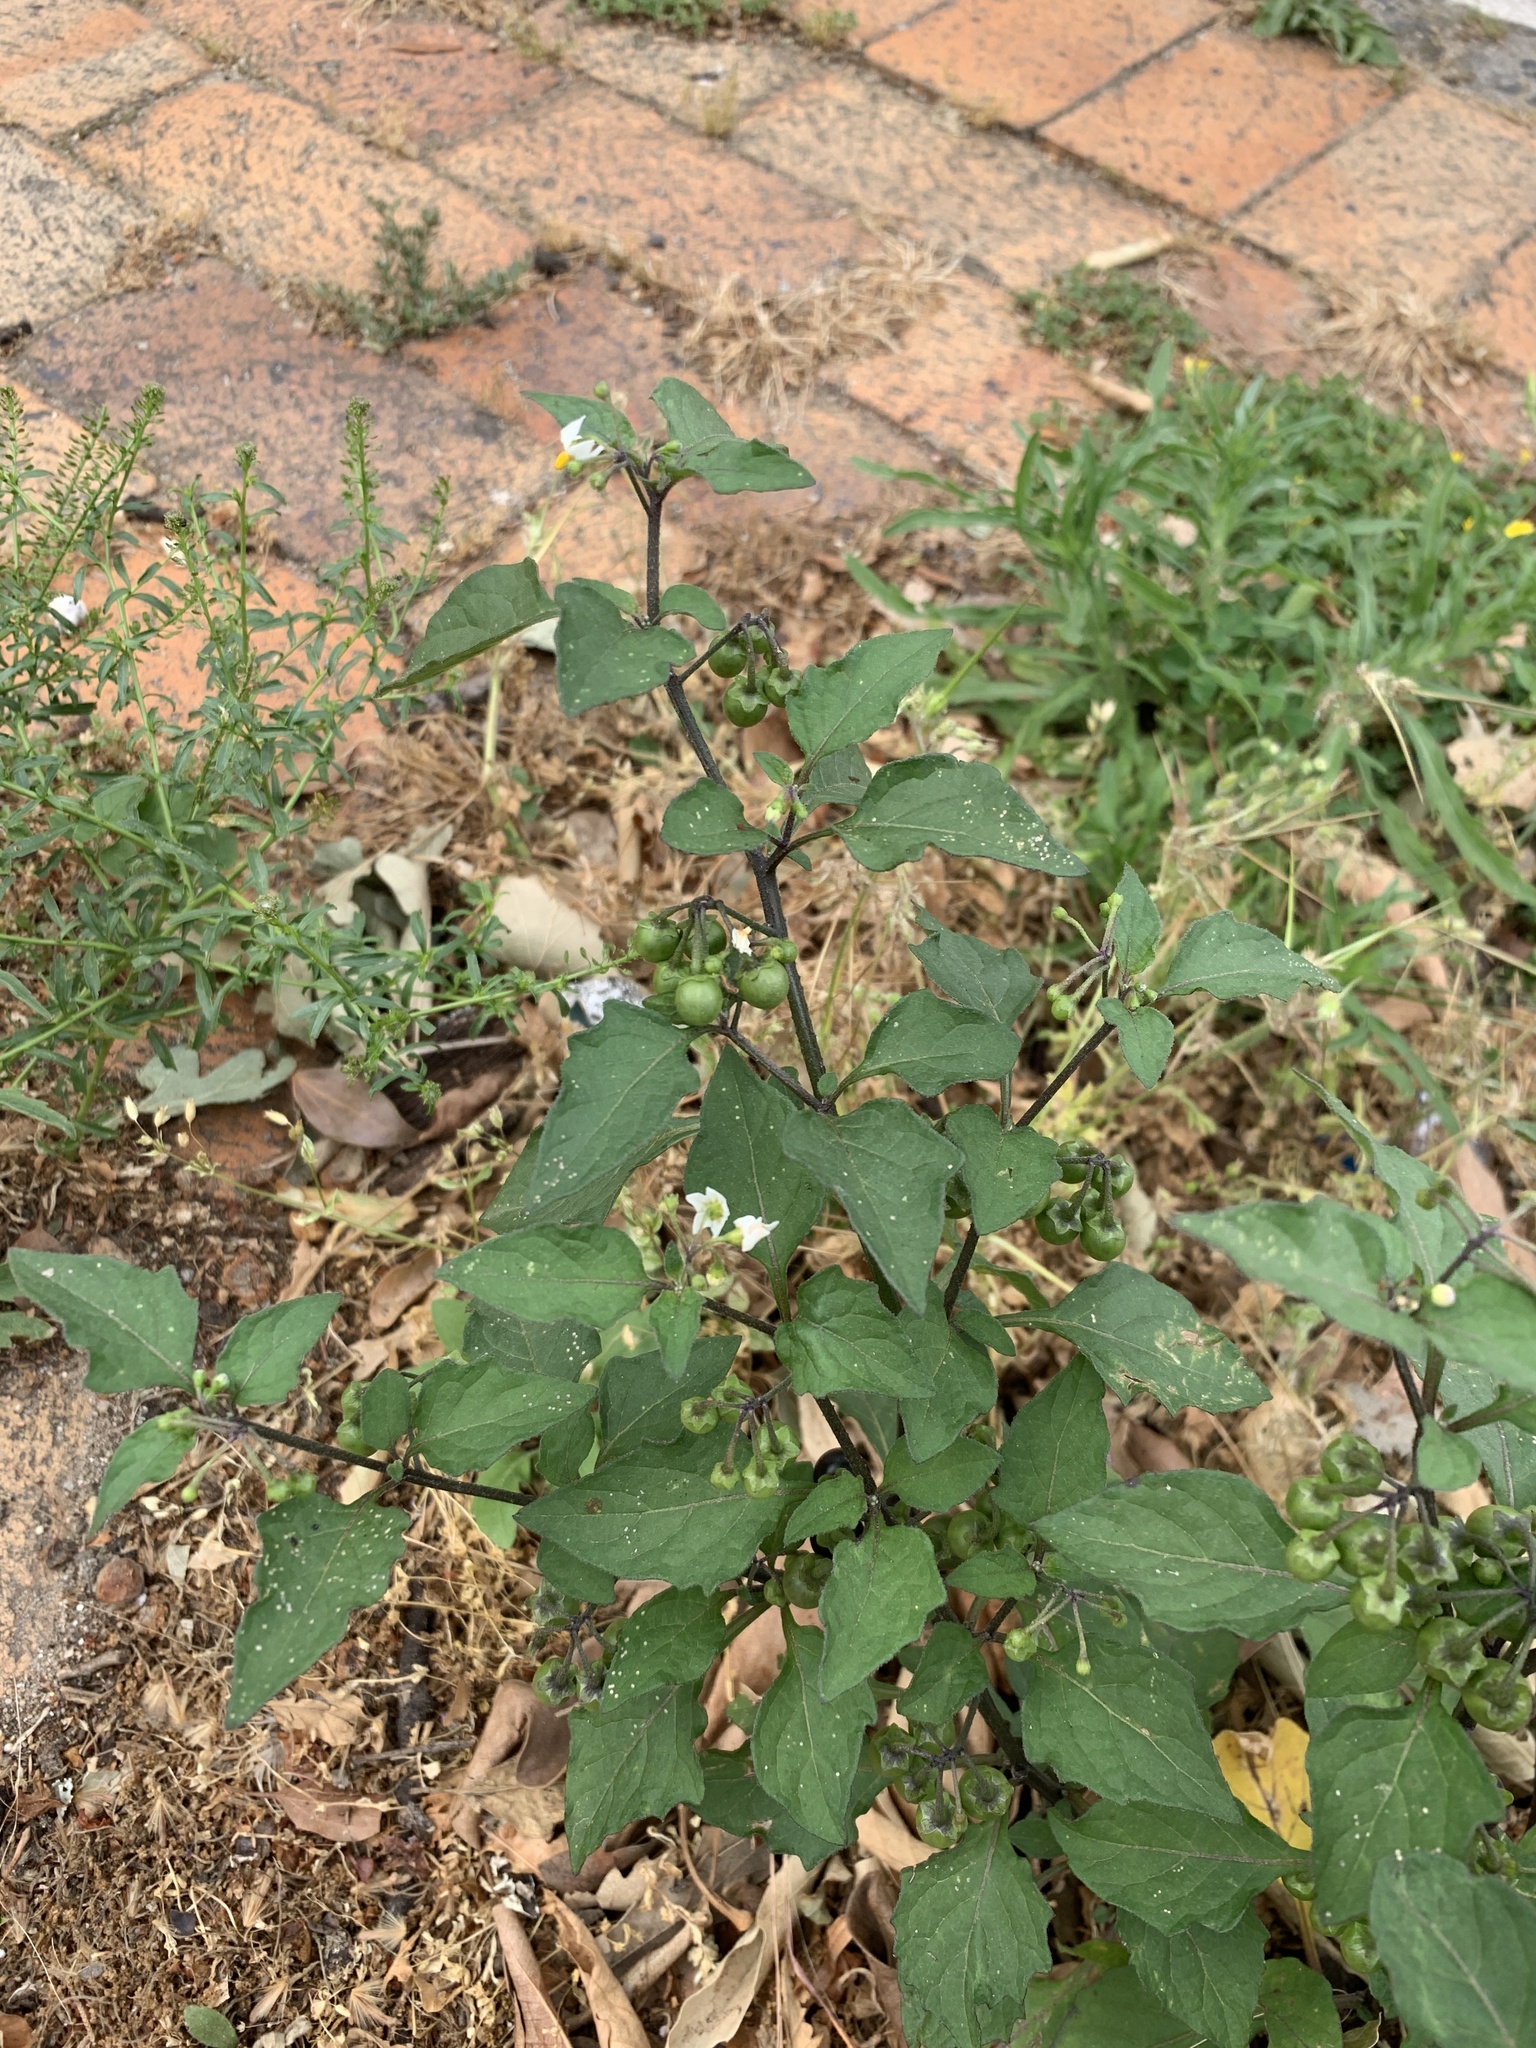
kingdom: Plantae
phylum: Tracheophyta
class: Magnoliopsida
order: Solanales
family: Solanaceae
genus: Solanum
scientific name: Solanum nigrum
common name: Black nightshade
